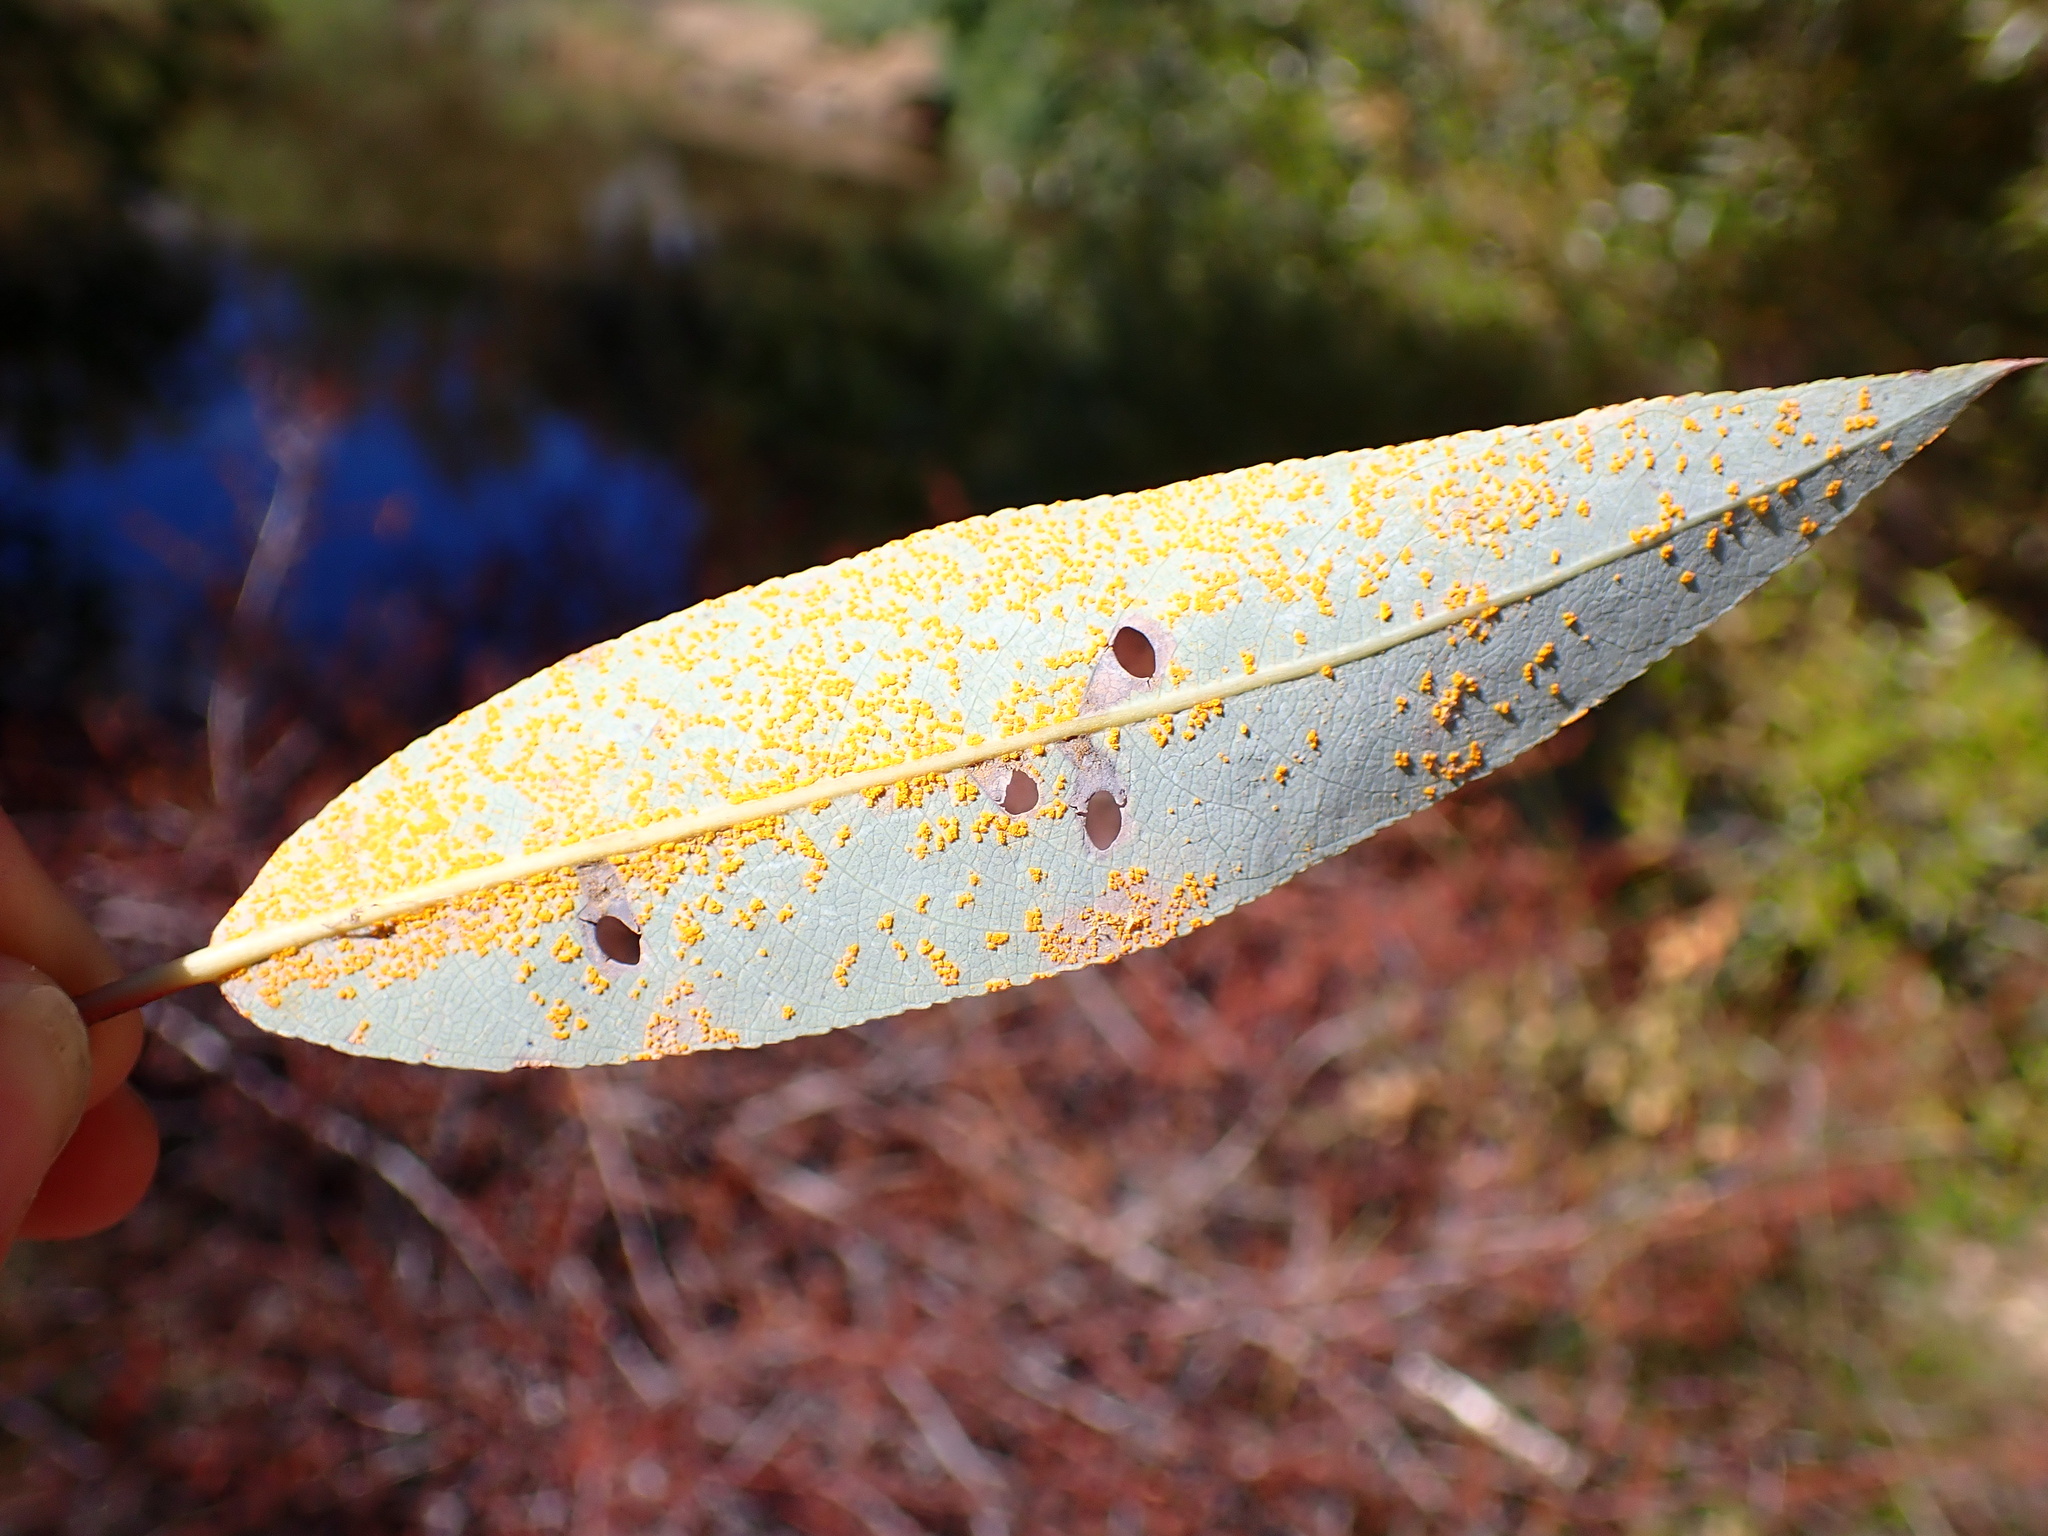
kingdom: Fungi
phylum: Basidiomycota
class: Pucciniomycetes
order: Pucciniales
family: Melampsoraceae
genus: Melampsora
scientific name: Melampsora epitea
